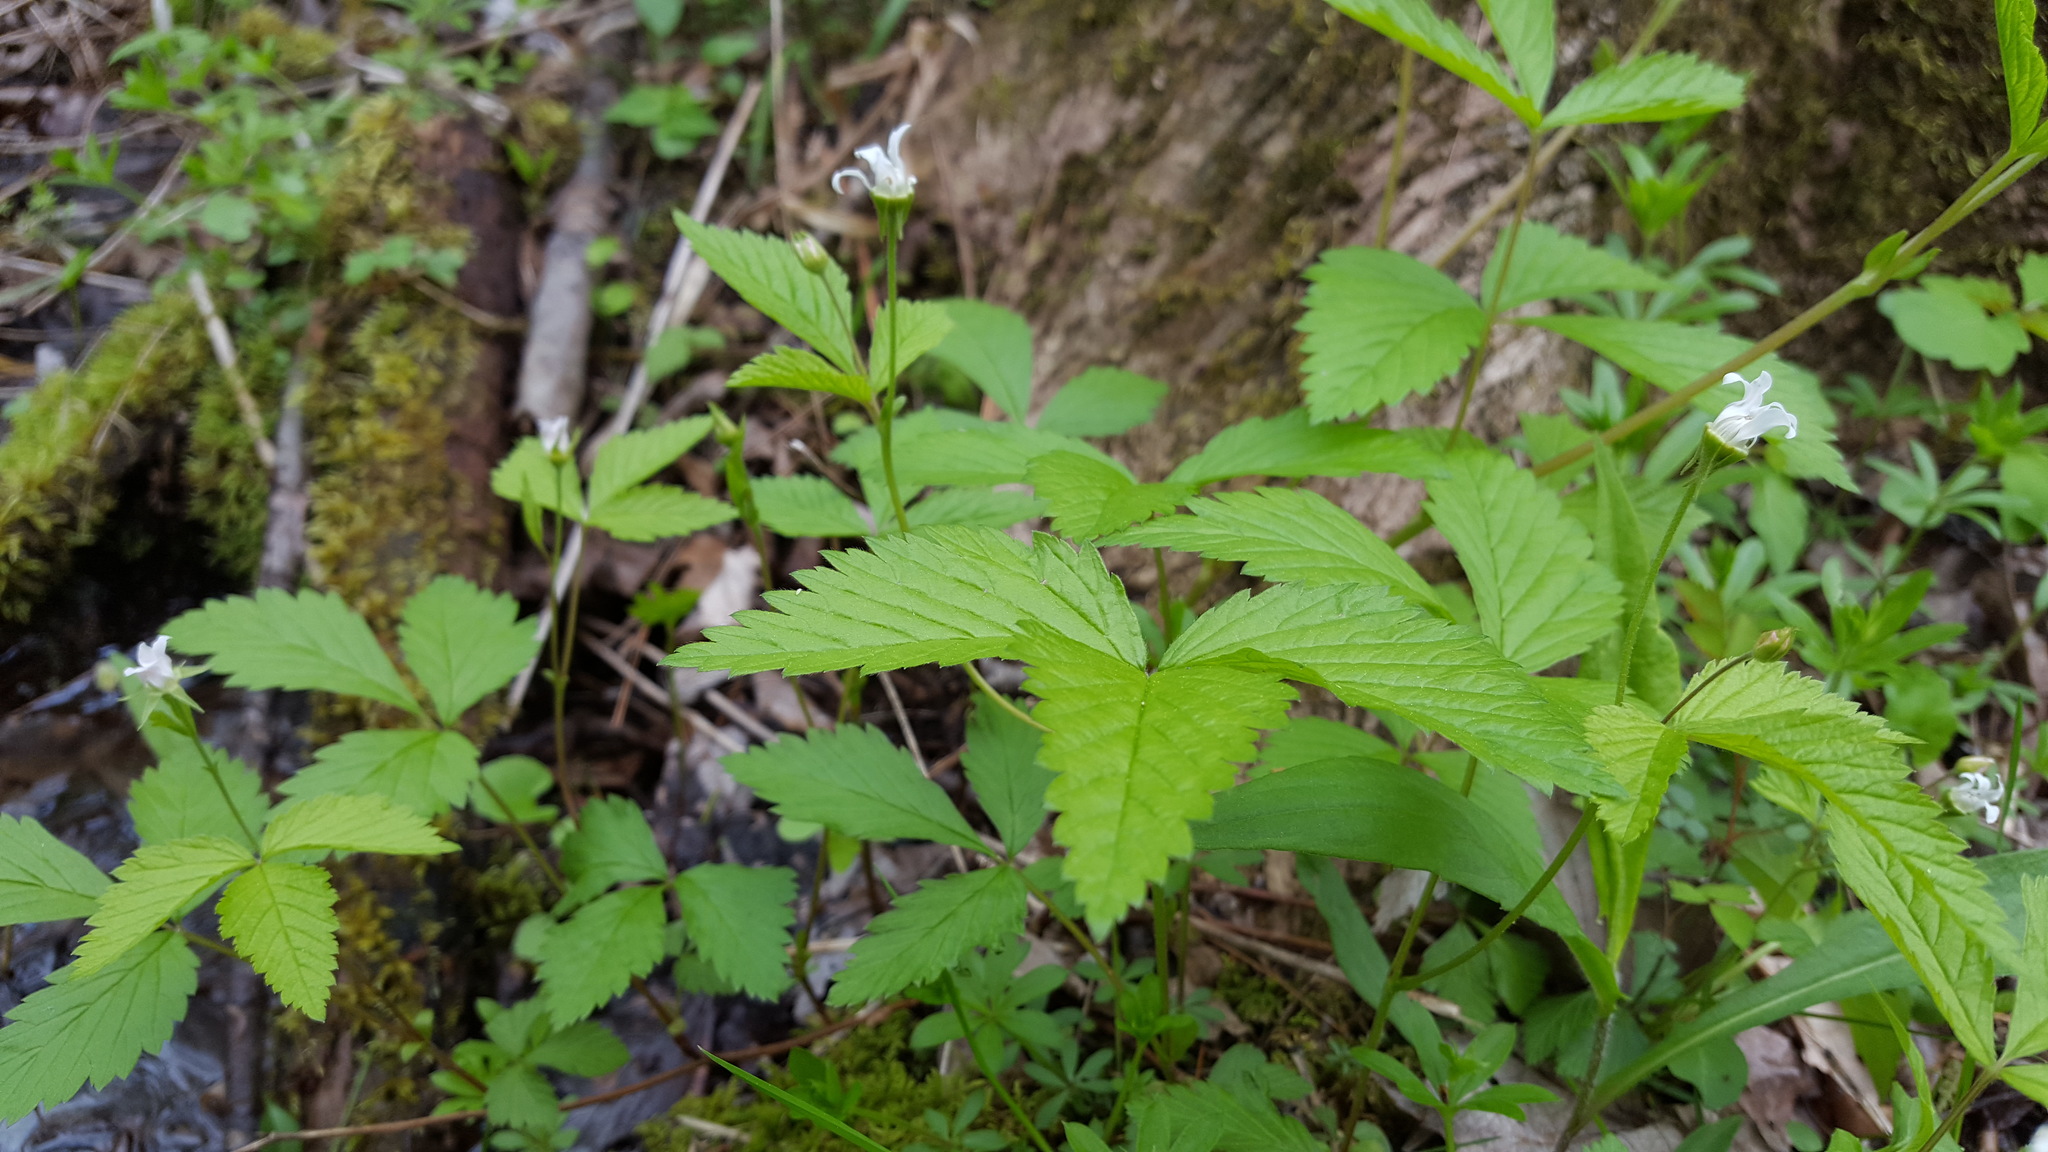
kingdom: Plantae
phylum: Tracheophyta
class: Magnoliopsida
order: Rosales
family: Rosaceae
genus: Rubus
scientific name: Rubus pubescens
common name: Dwarf raspberry
